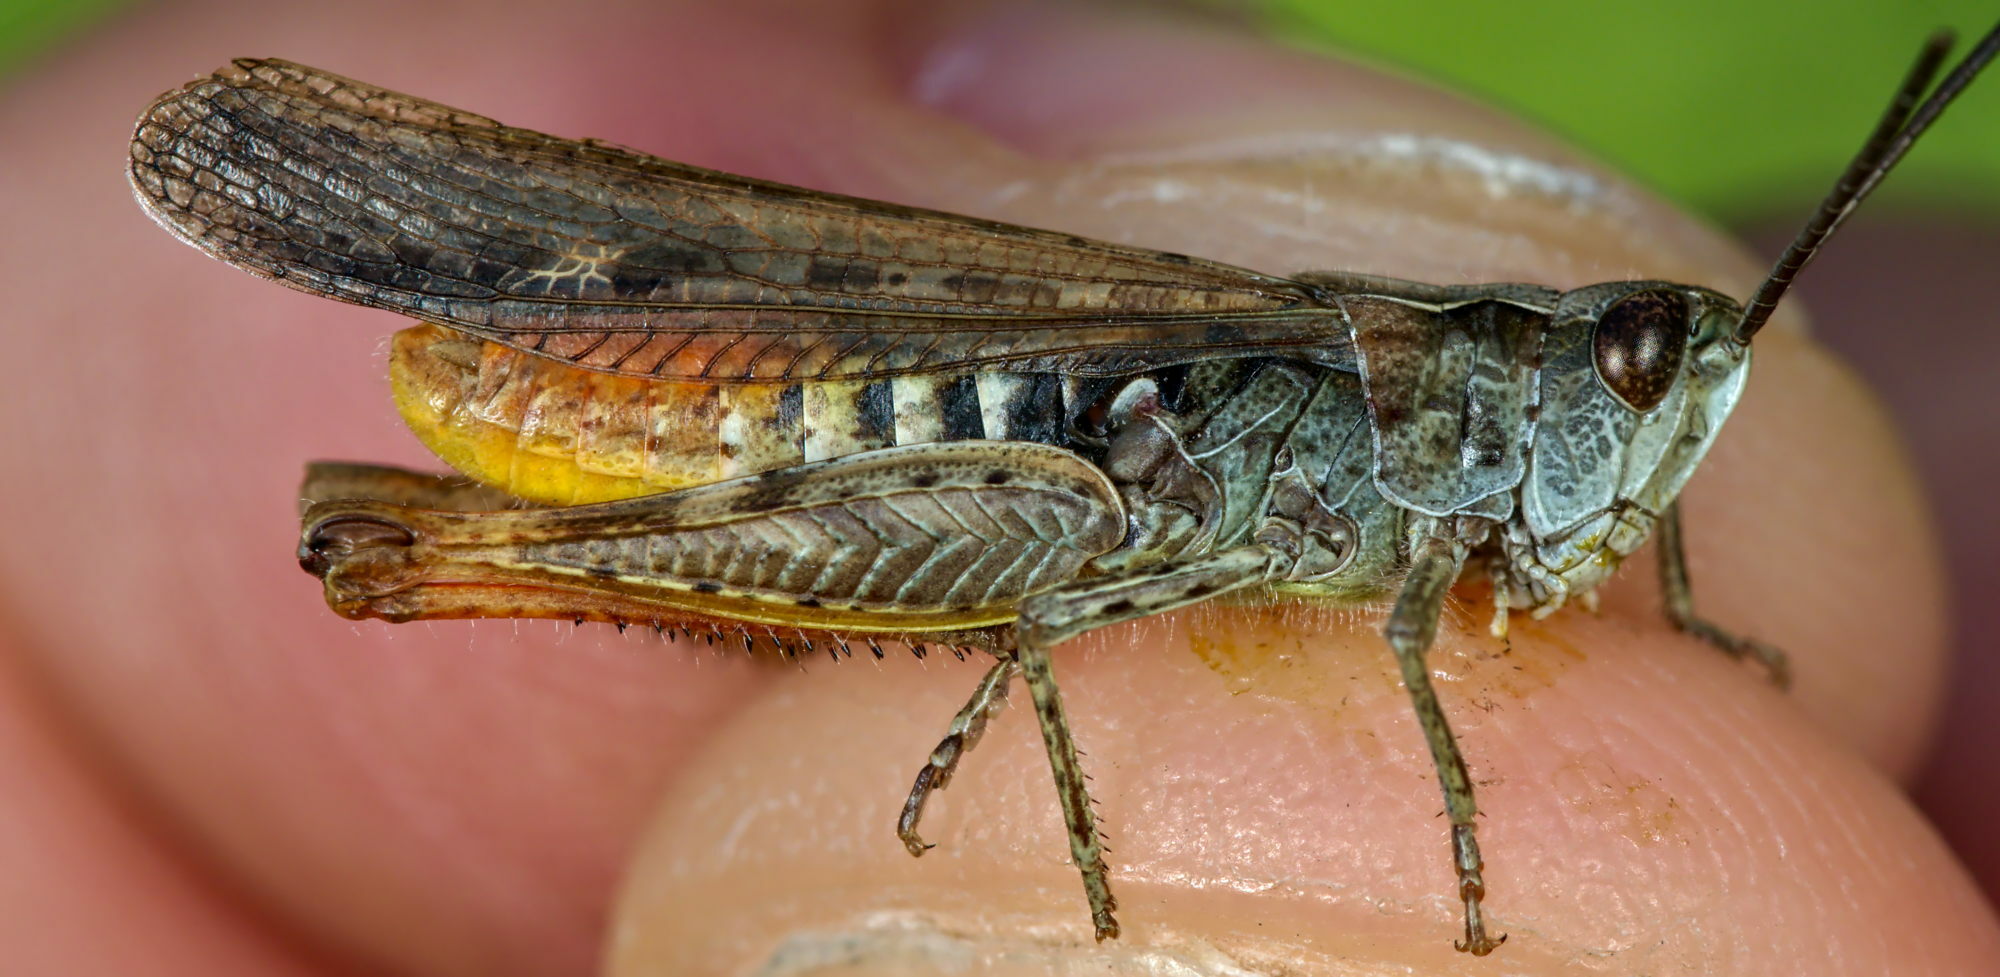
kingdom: Animalia
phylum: Arthropoda
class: Insecta
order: Orthoptera
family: Acrididae
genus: Chorthippus
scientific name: Chorthippus brunneus
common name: Field grasshopper
